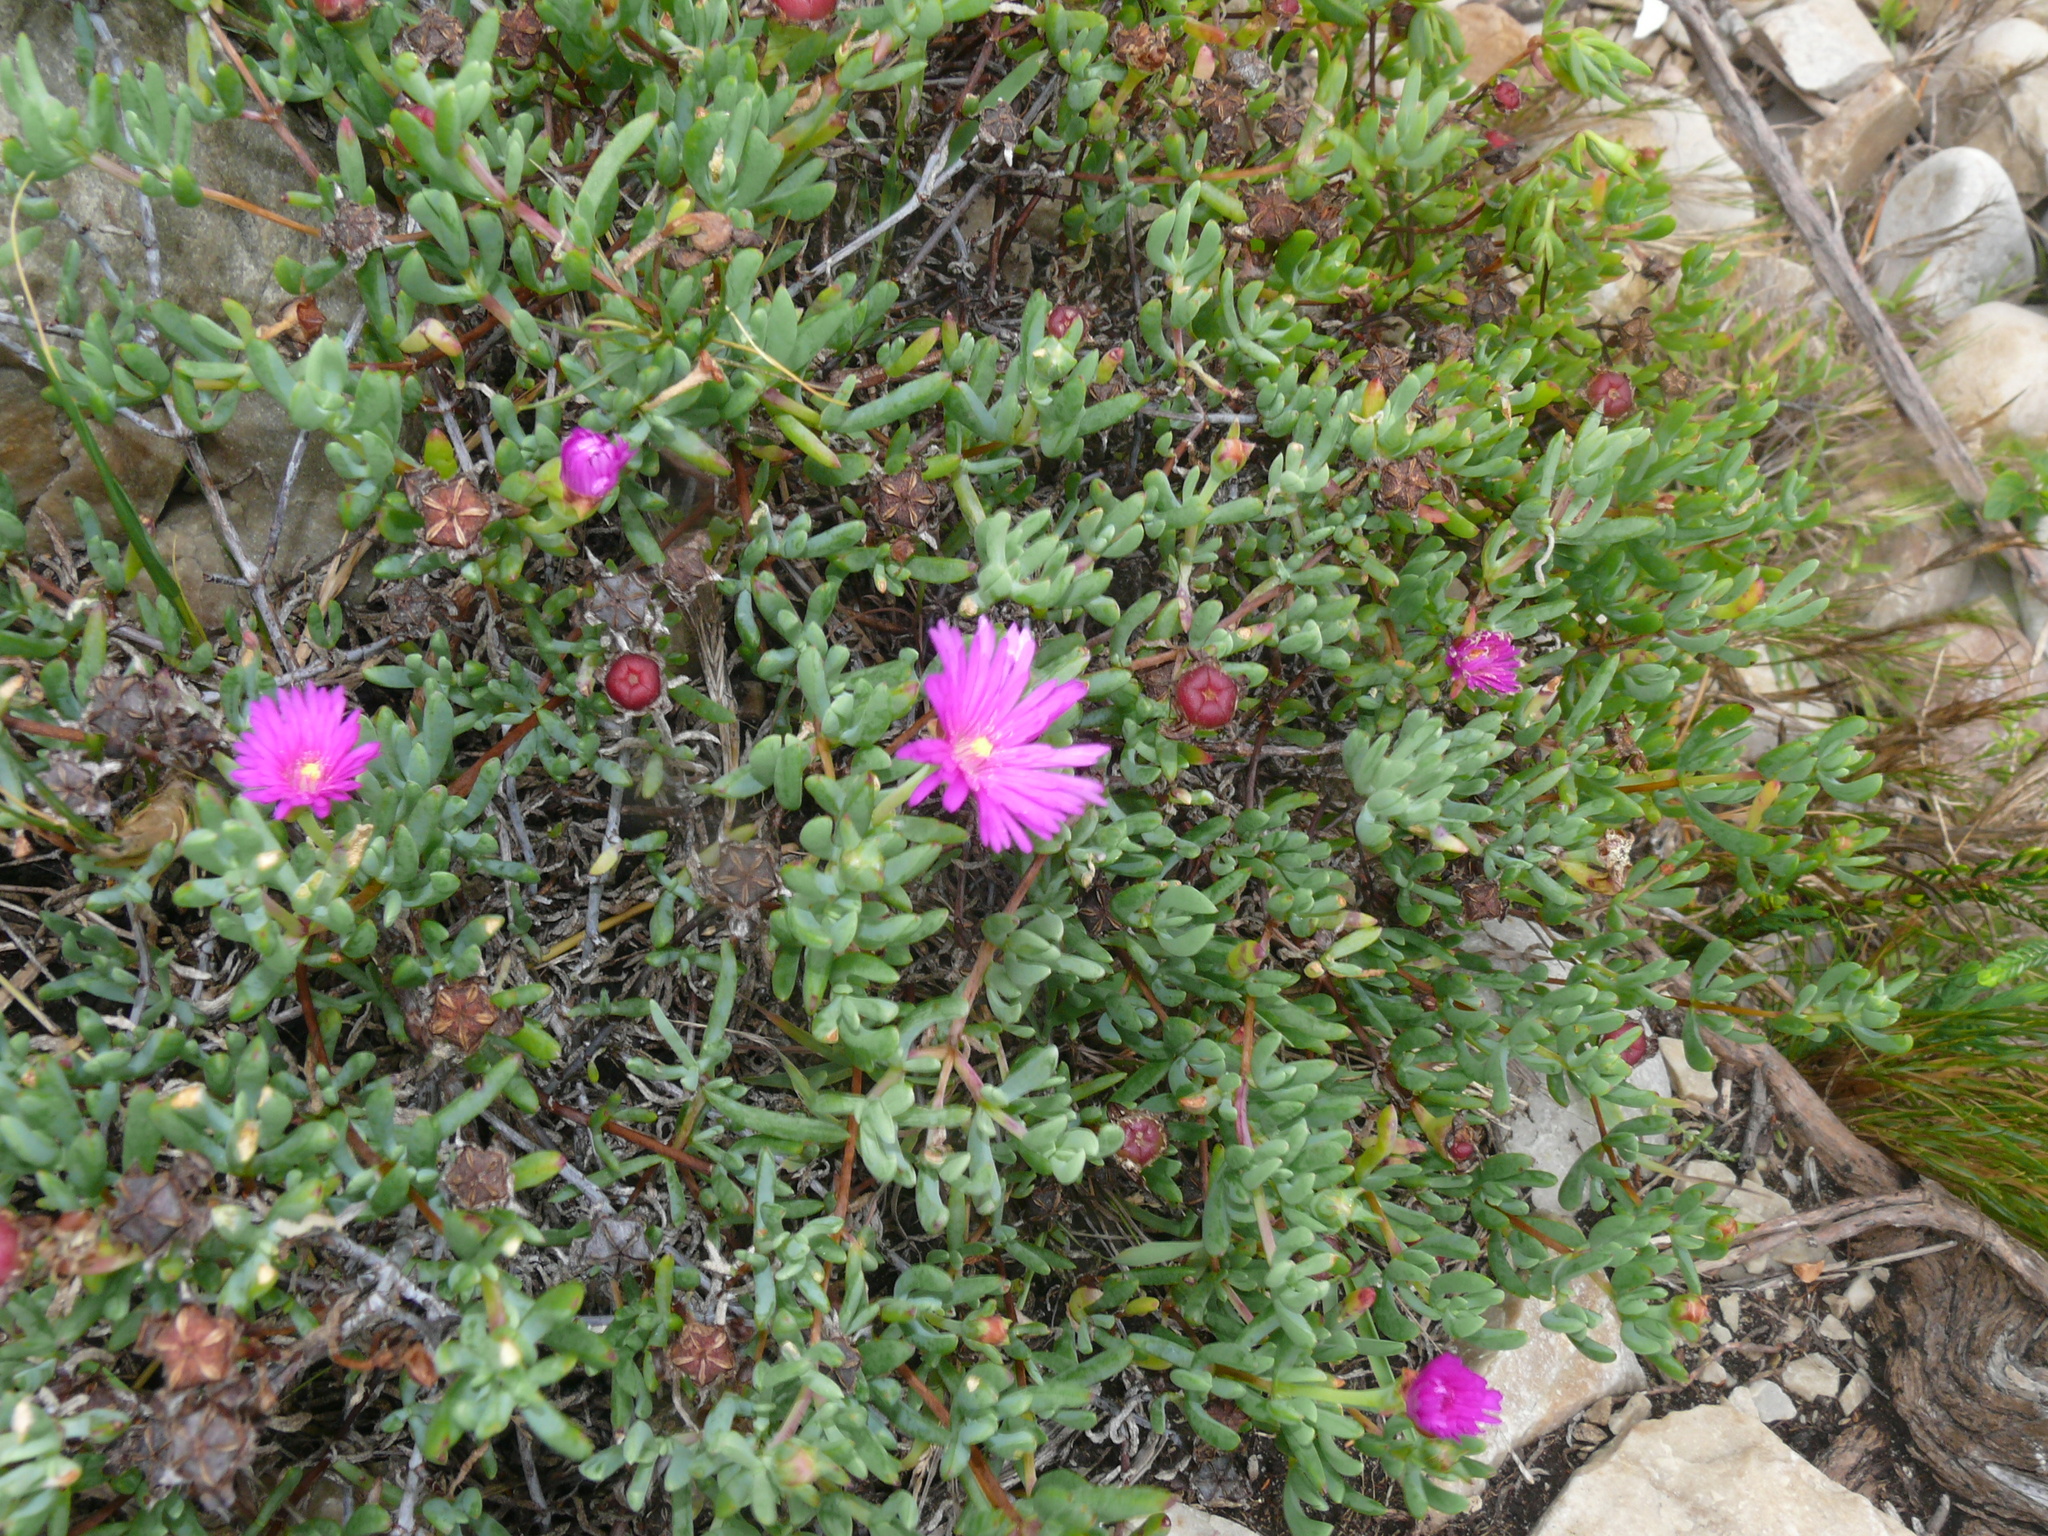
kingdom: Plantae
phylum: Tracheophyta
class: Magnoliopsida
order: Caryophyllales
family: Aizoaceae
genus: Lampranthus
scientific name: Lampranthus aestivus
